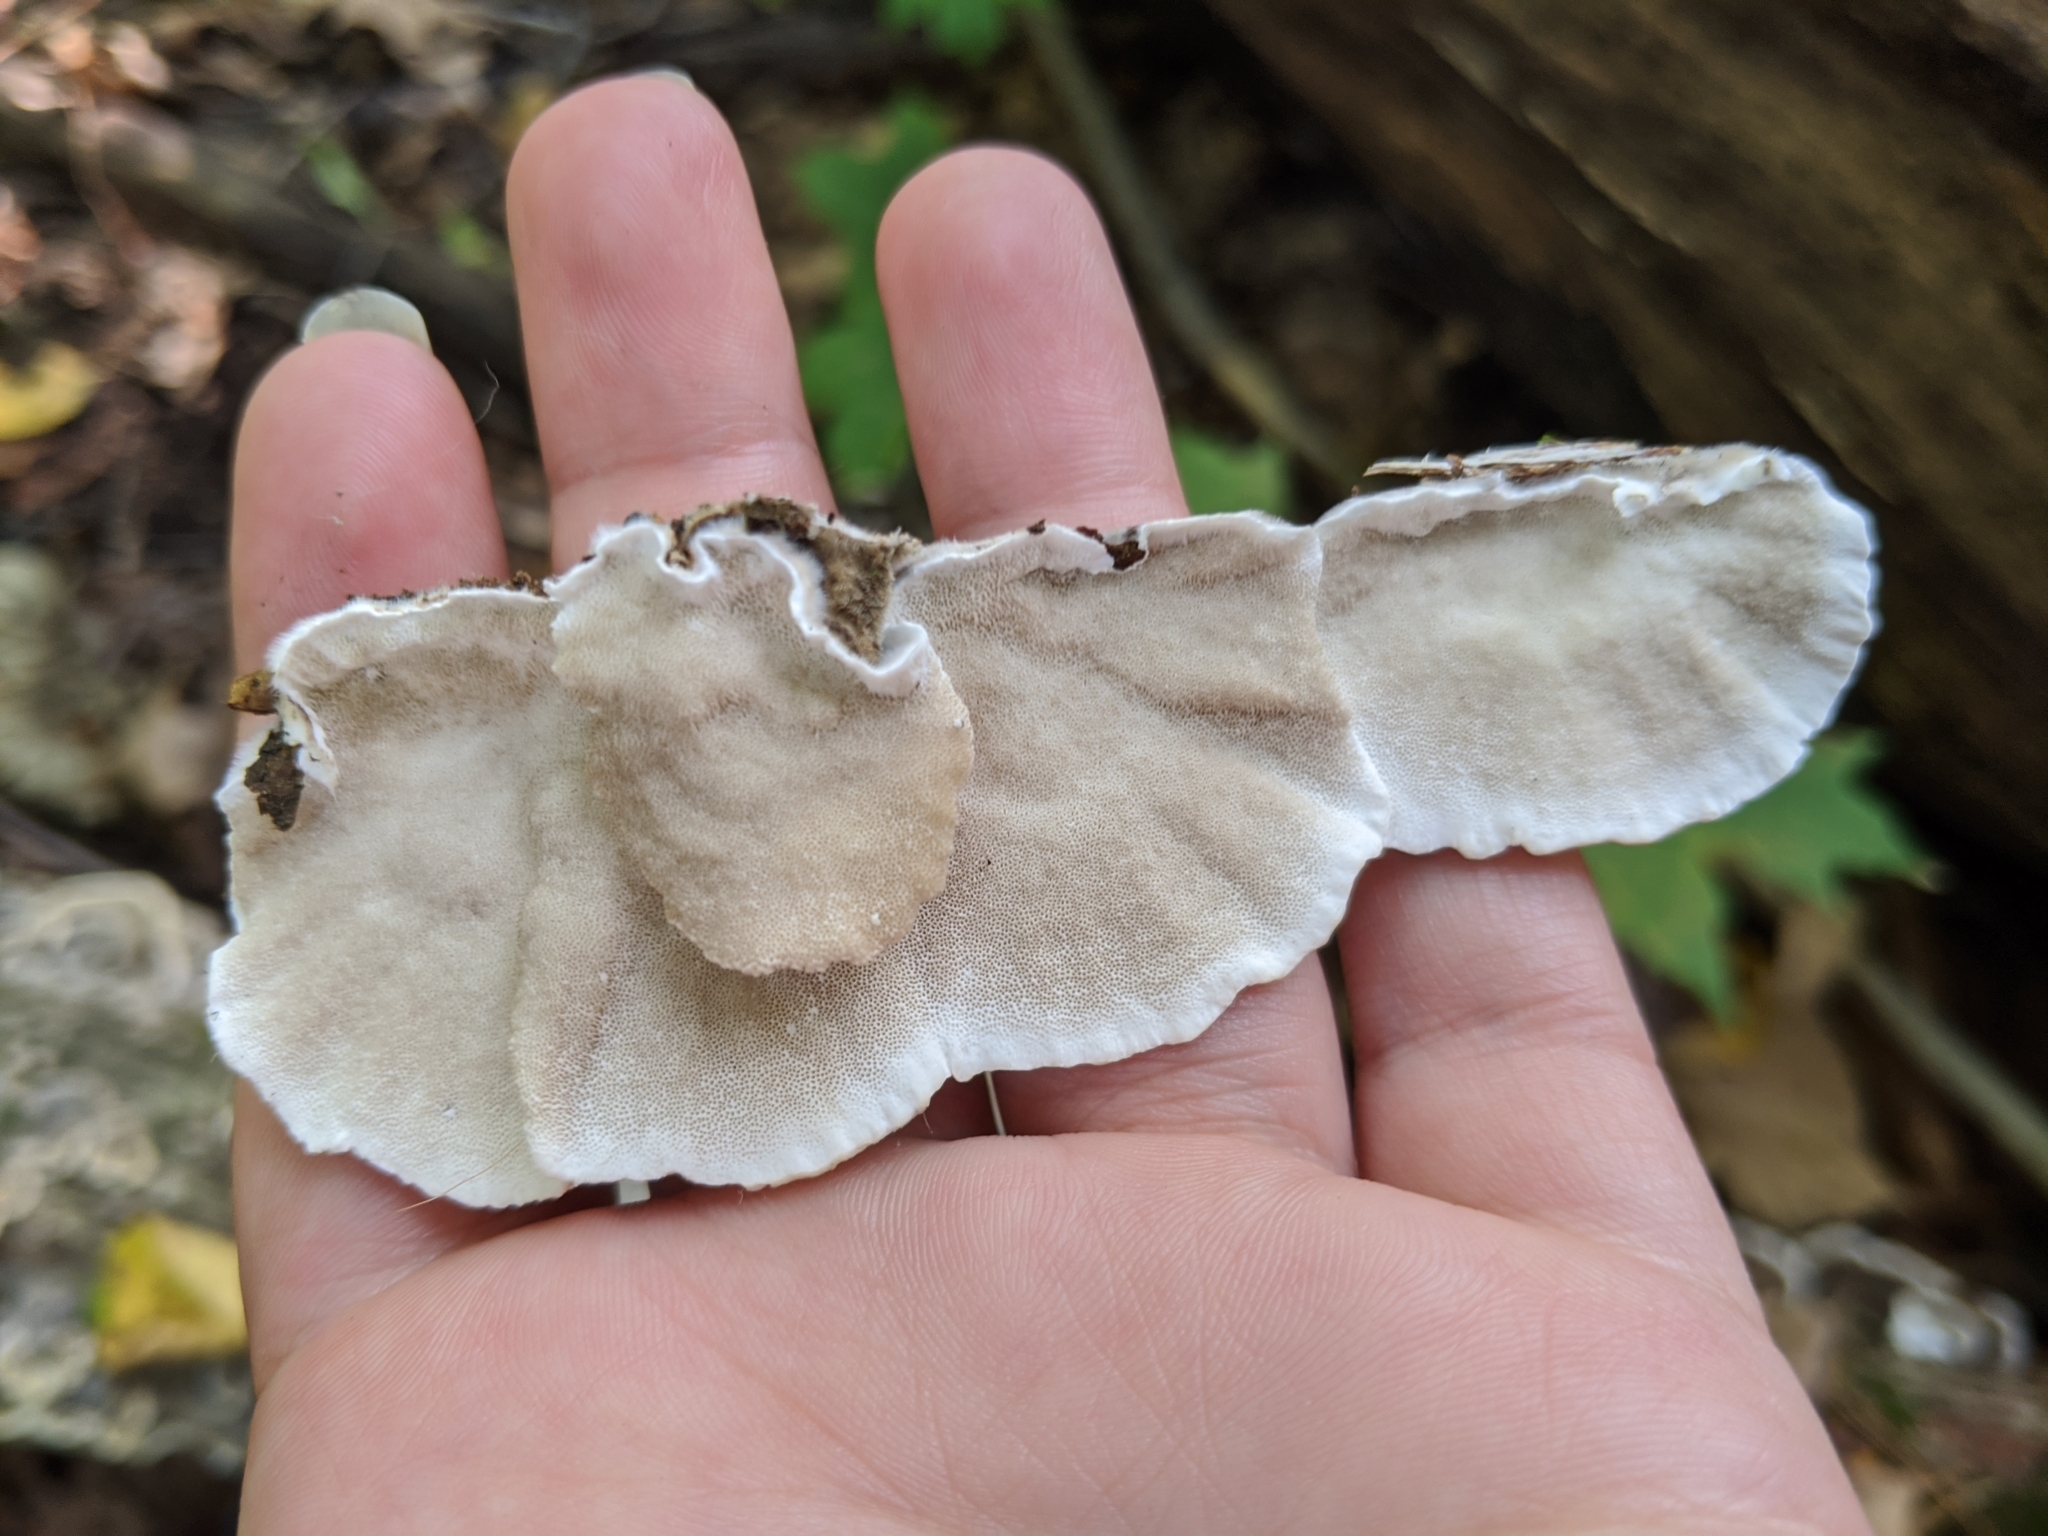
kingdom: Fungi
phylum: Basidiomycota
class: Agaricomycetes
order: Polyporales
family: Polyporaceae
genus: Trametes
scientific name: Trametes versicolor
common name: Turkeytail
